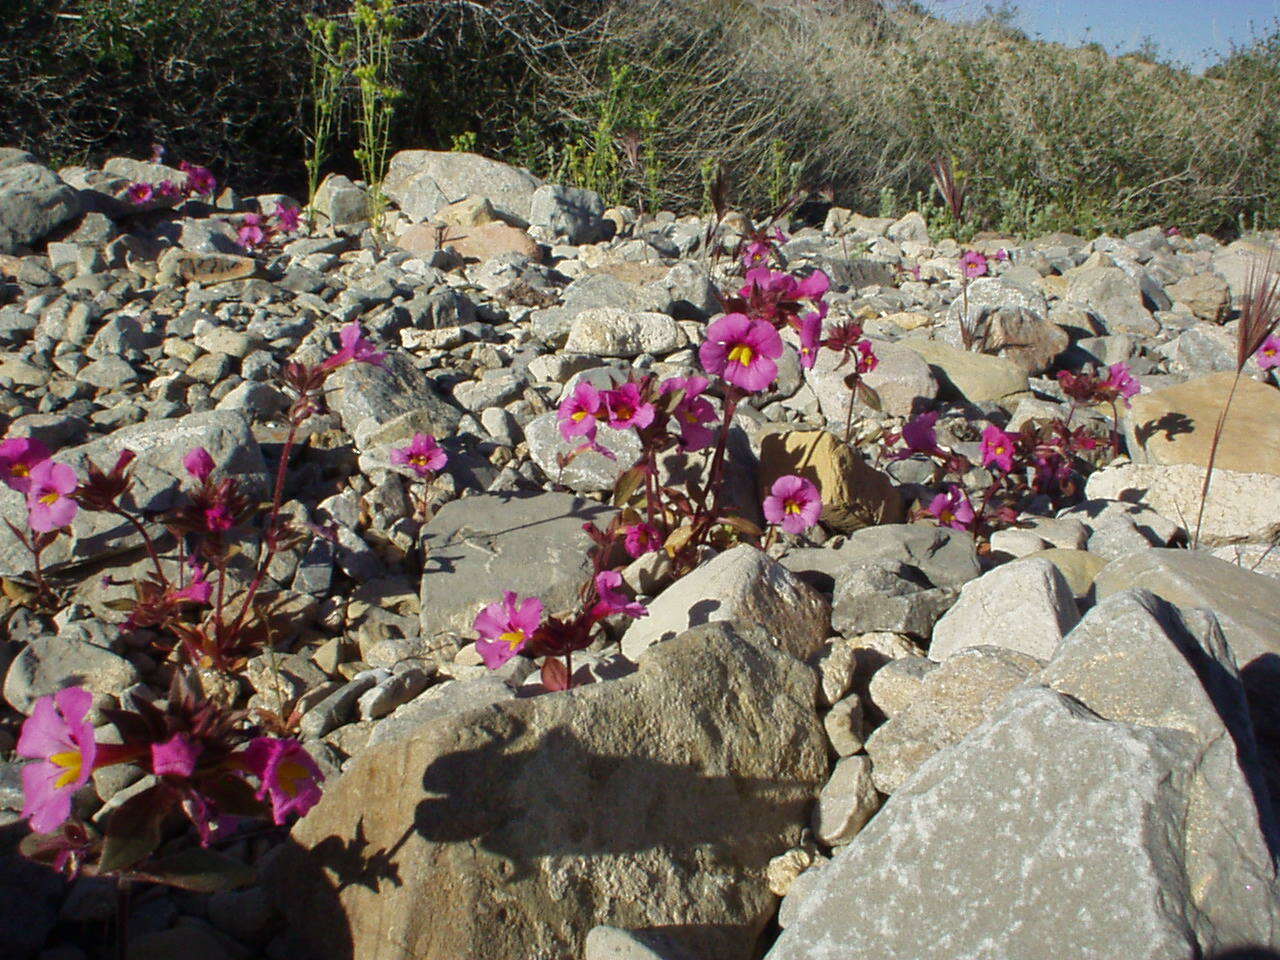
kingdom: Plantae
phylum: Tracheophyta
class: Magnoliopsida
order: Lamiales
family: Phrymaceae
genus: Diplacus
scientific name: Diplacus bigelovii
